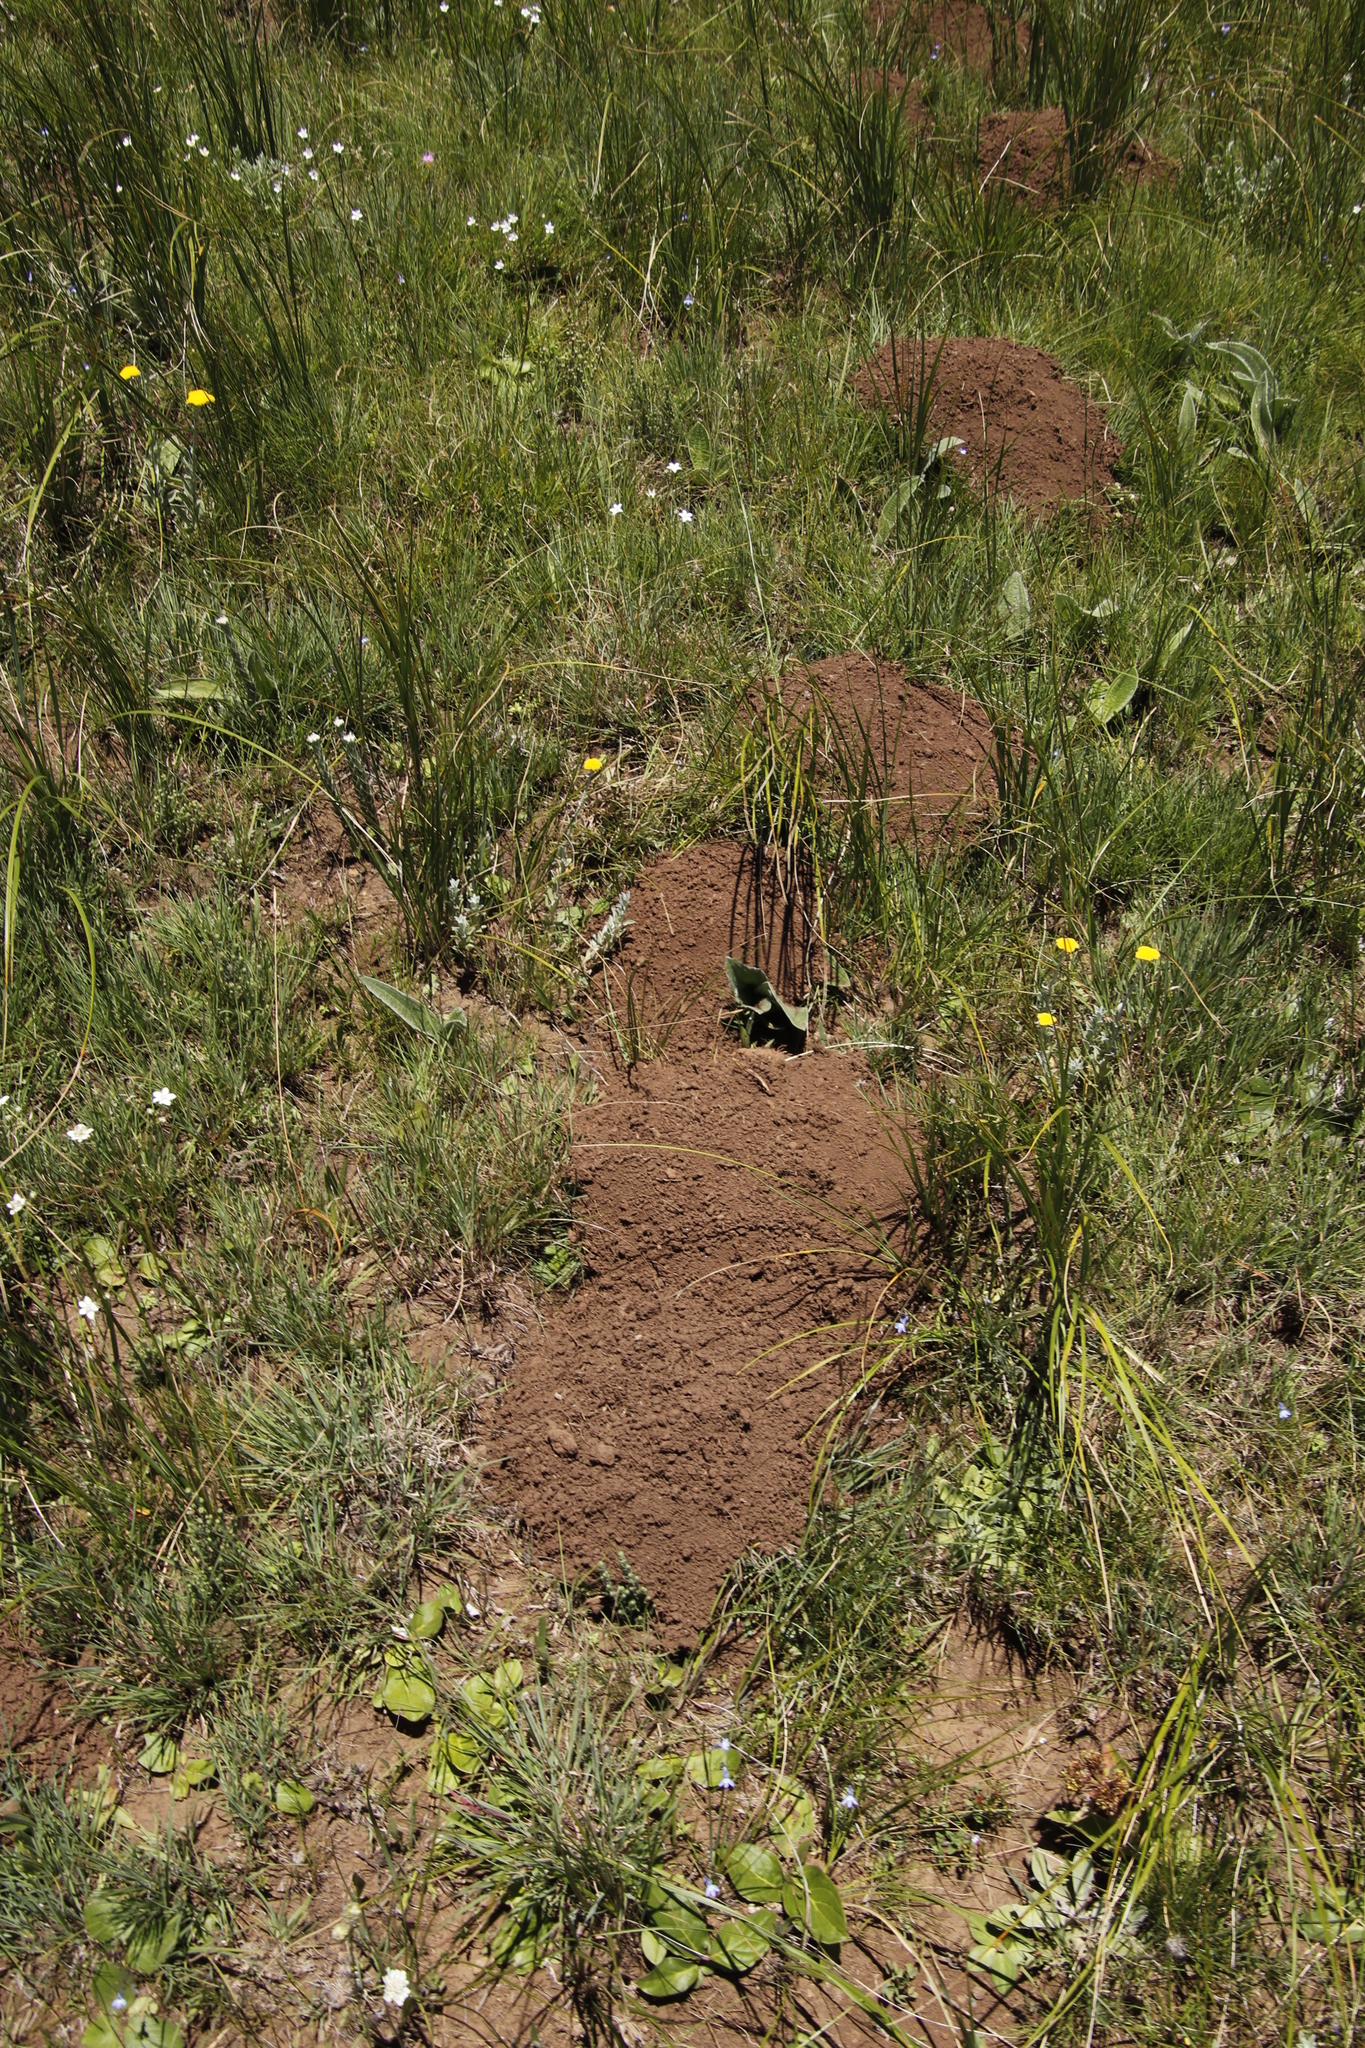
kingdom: Animalia
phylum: Chordata
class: Mammalia
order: Rodentia
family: Bathyergidae
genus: Cryptomys
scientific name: Cryptomys hottentotus
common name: Southern african mole-rat
